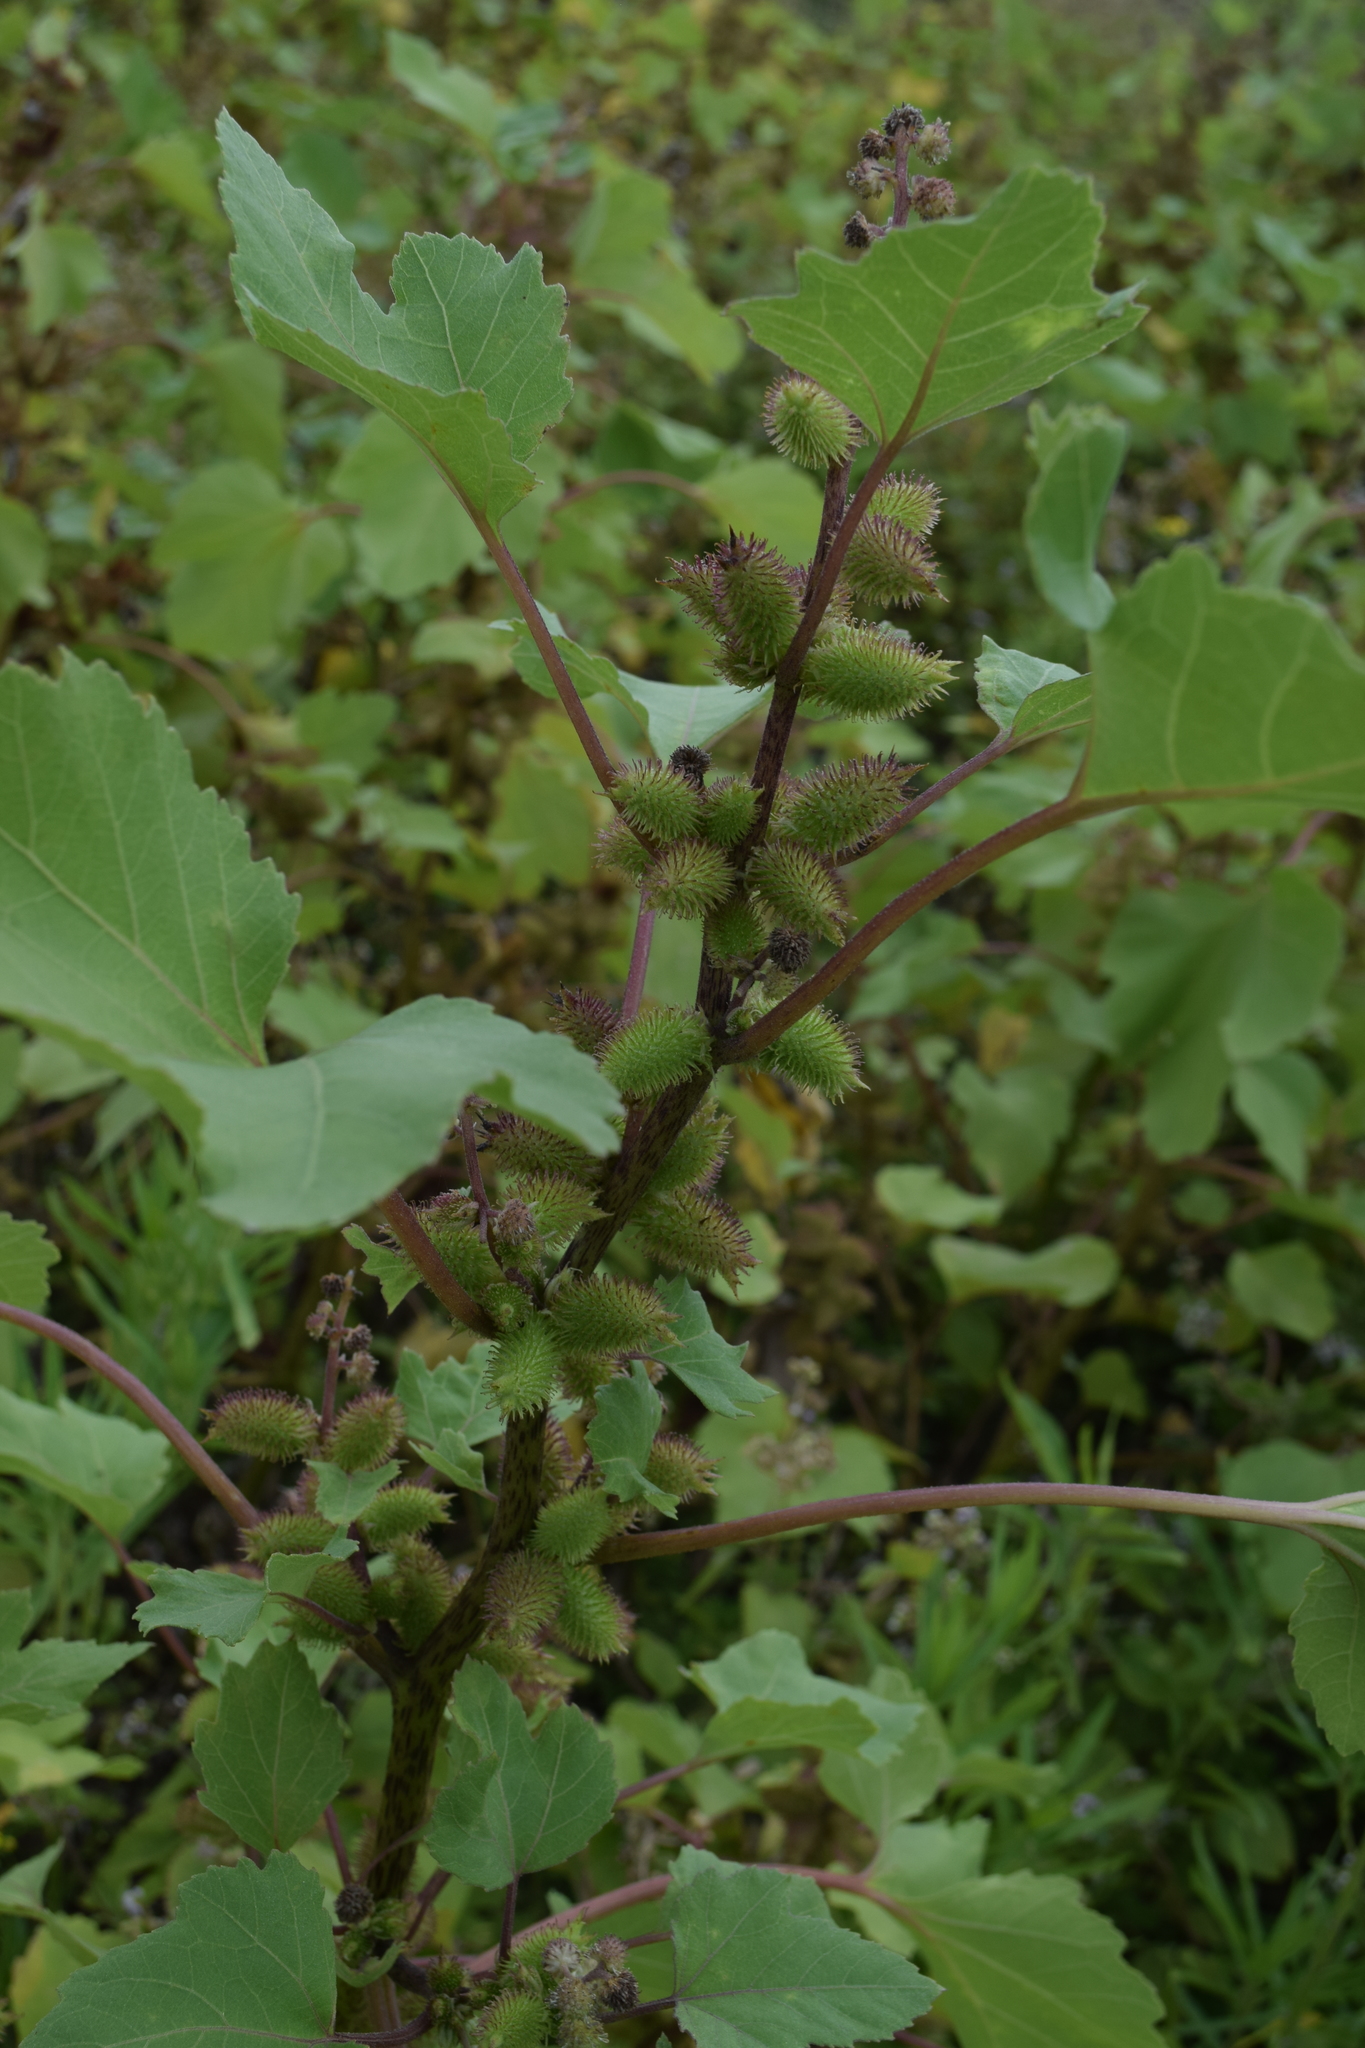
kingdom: Plantae
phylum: Tracheophyta
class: Magnoliopsida
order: Asterales
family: Asteraceae
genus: Xanthium
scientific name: Xanthium strumarium
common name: Rough cocklebur
